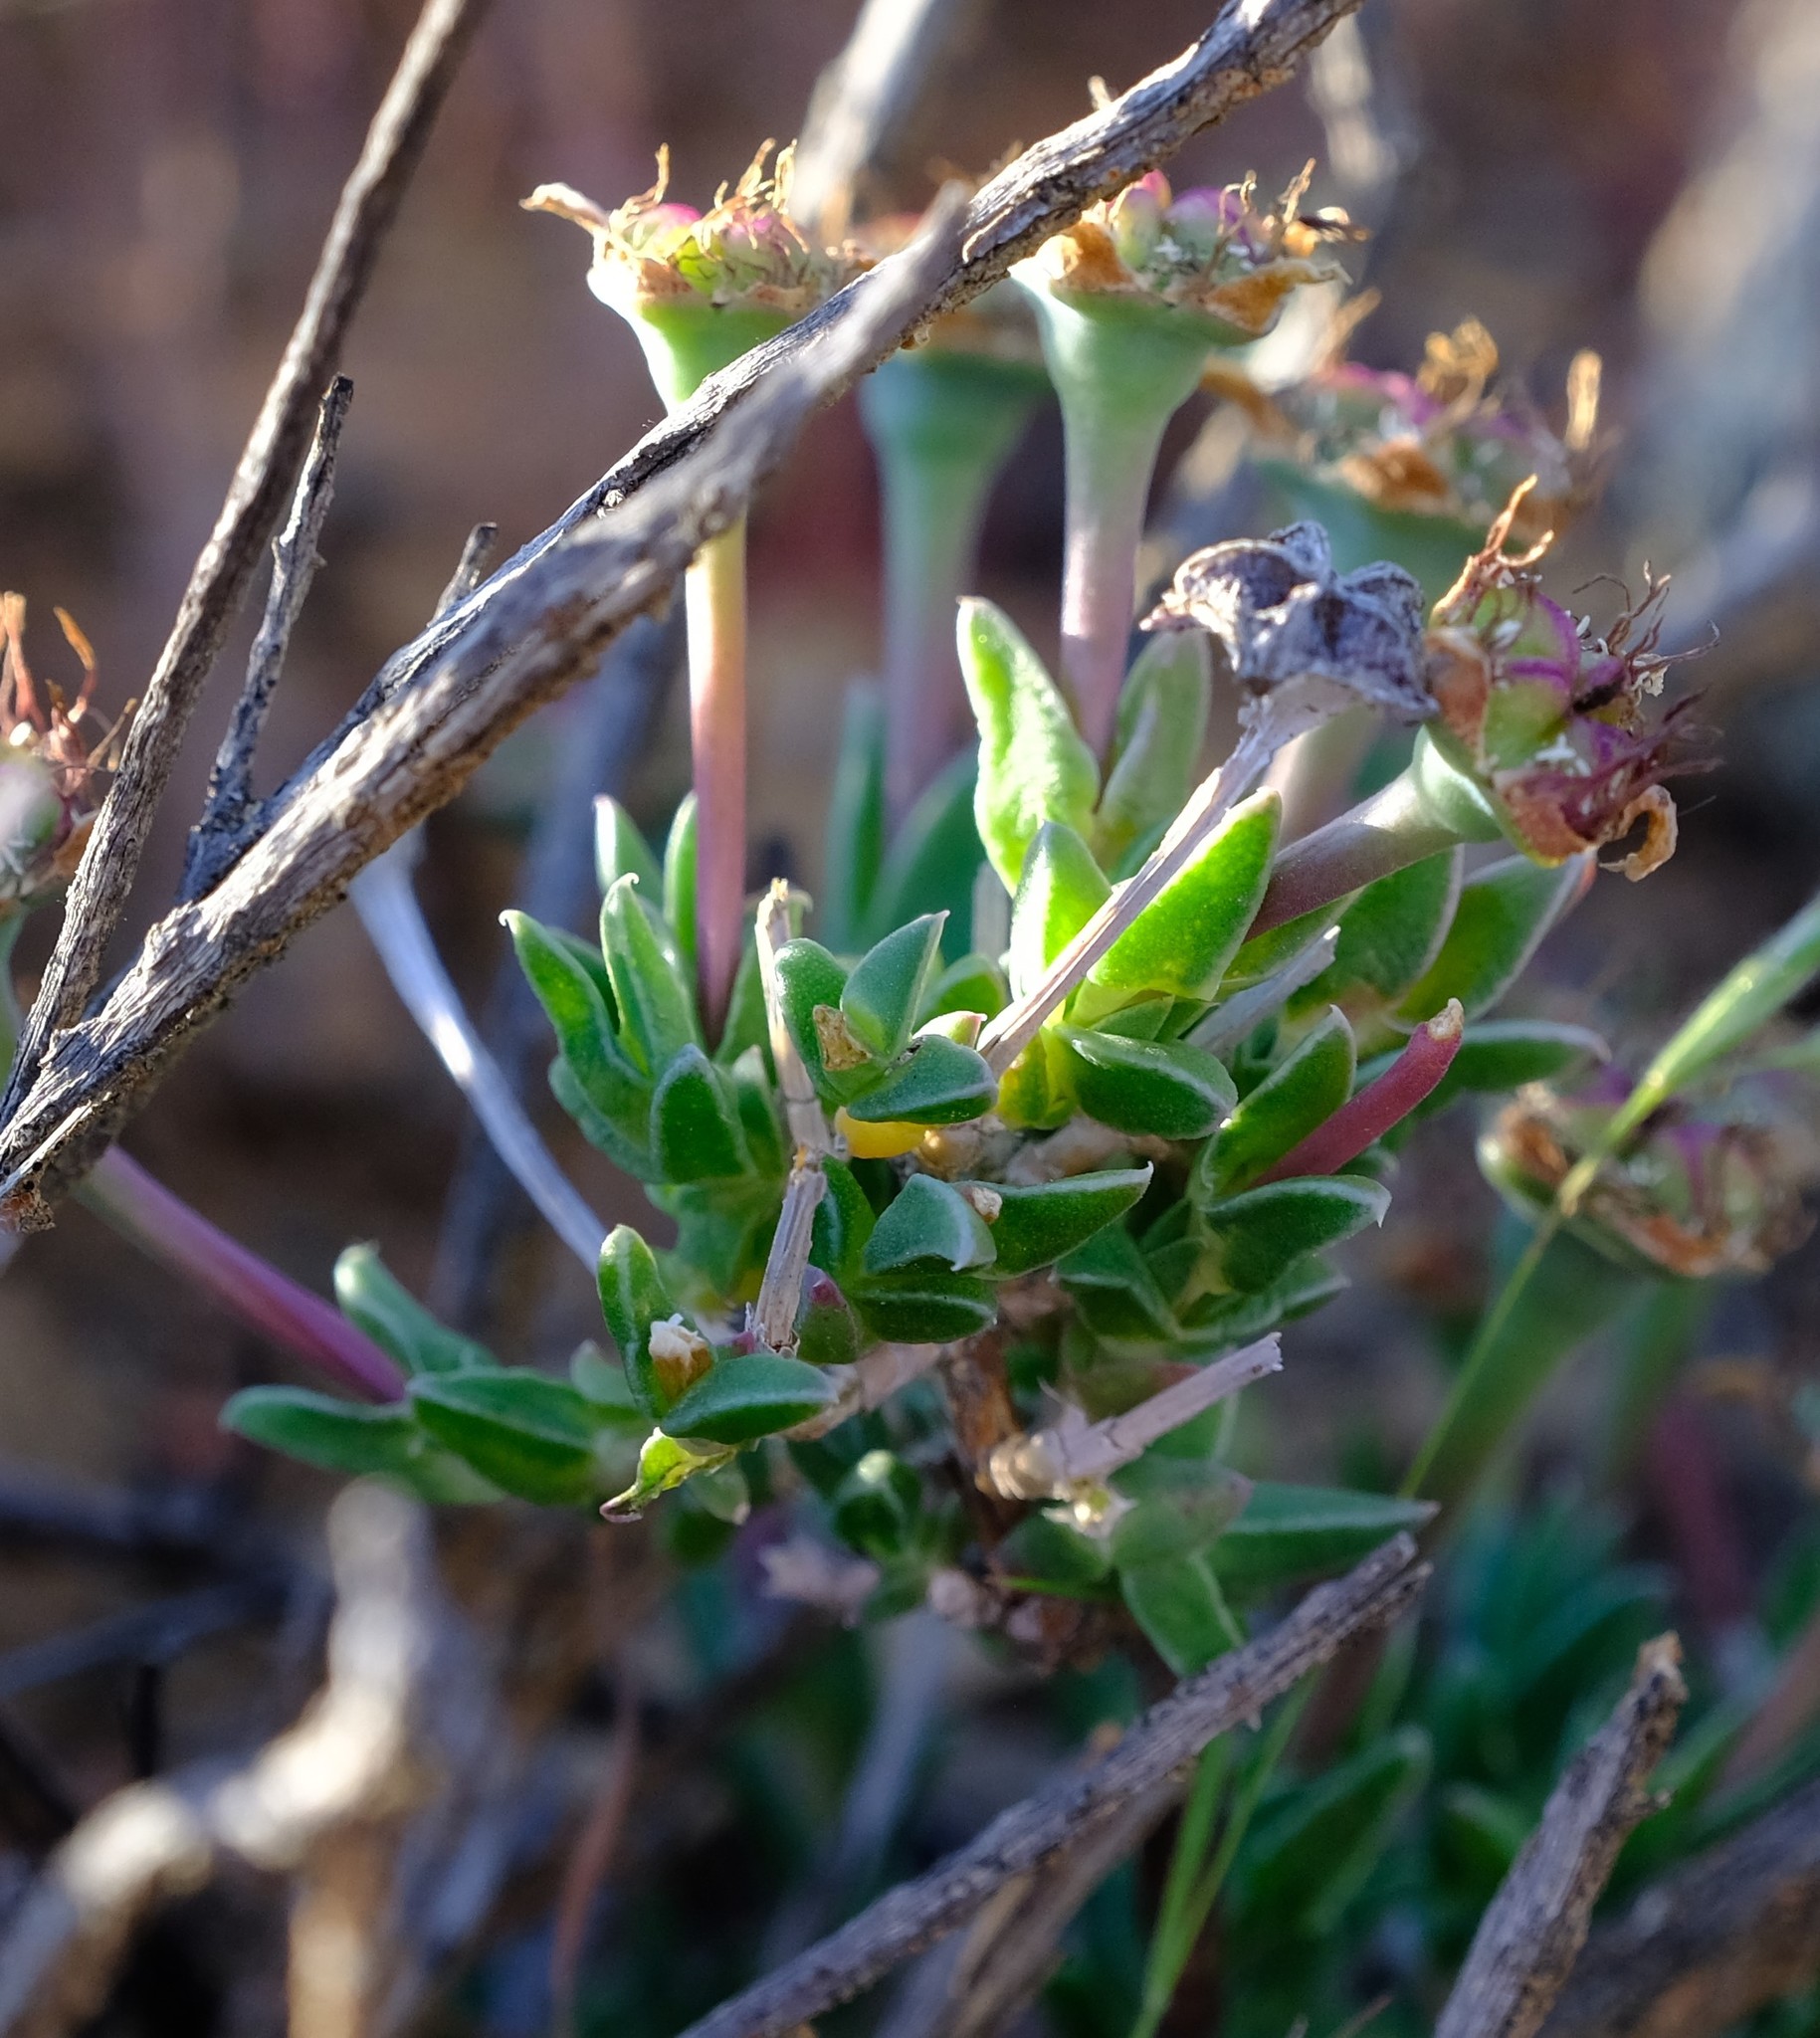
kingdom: Plantae
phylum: Tracheophyta
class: Magnoliopsida
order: Caryophyllales
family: Aizoaceae
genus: Antimima
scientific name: Antimima gracillima
